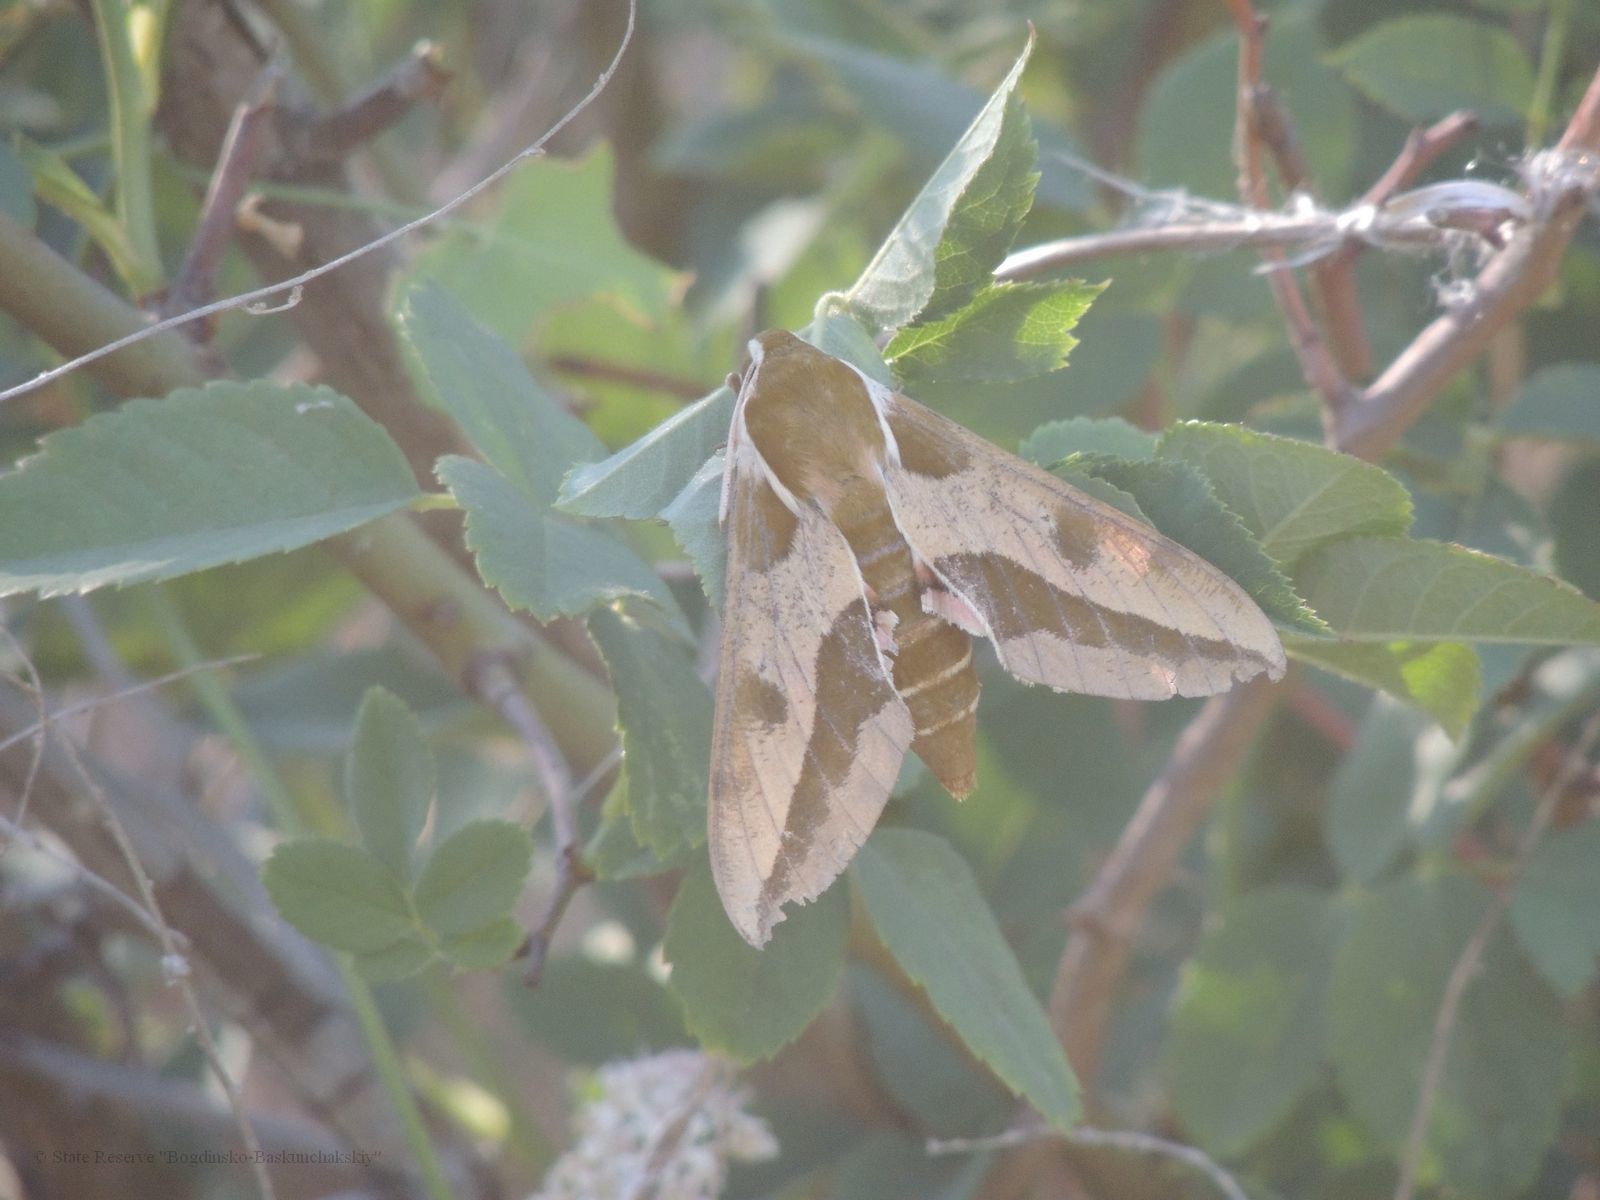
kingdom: Animalia
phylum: Arthropoda
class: Insecta
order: Lepidoptera
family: Sphingidae
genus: Hyles
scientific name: Hyles euphorbiae
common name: Spurge hawk-moth
